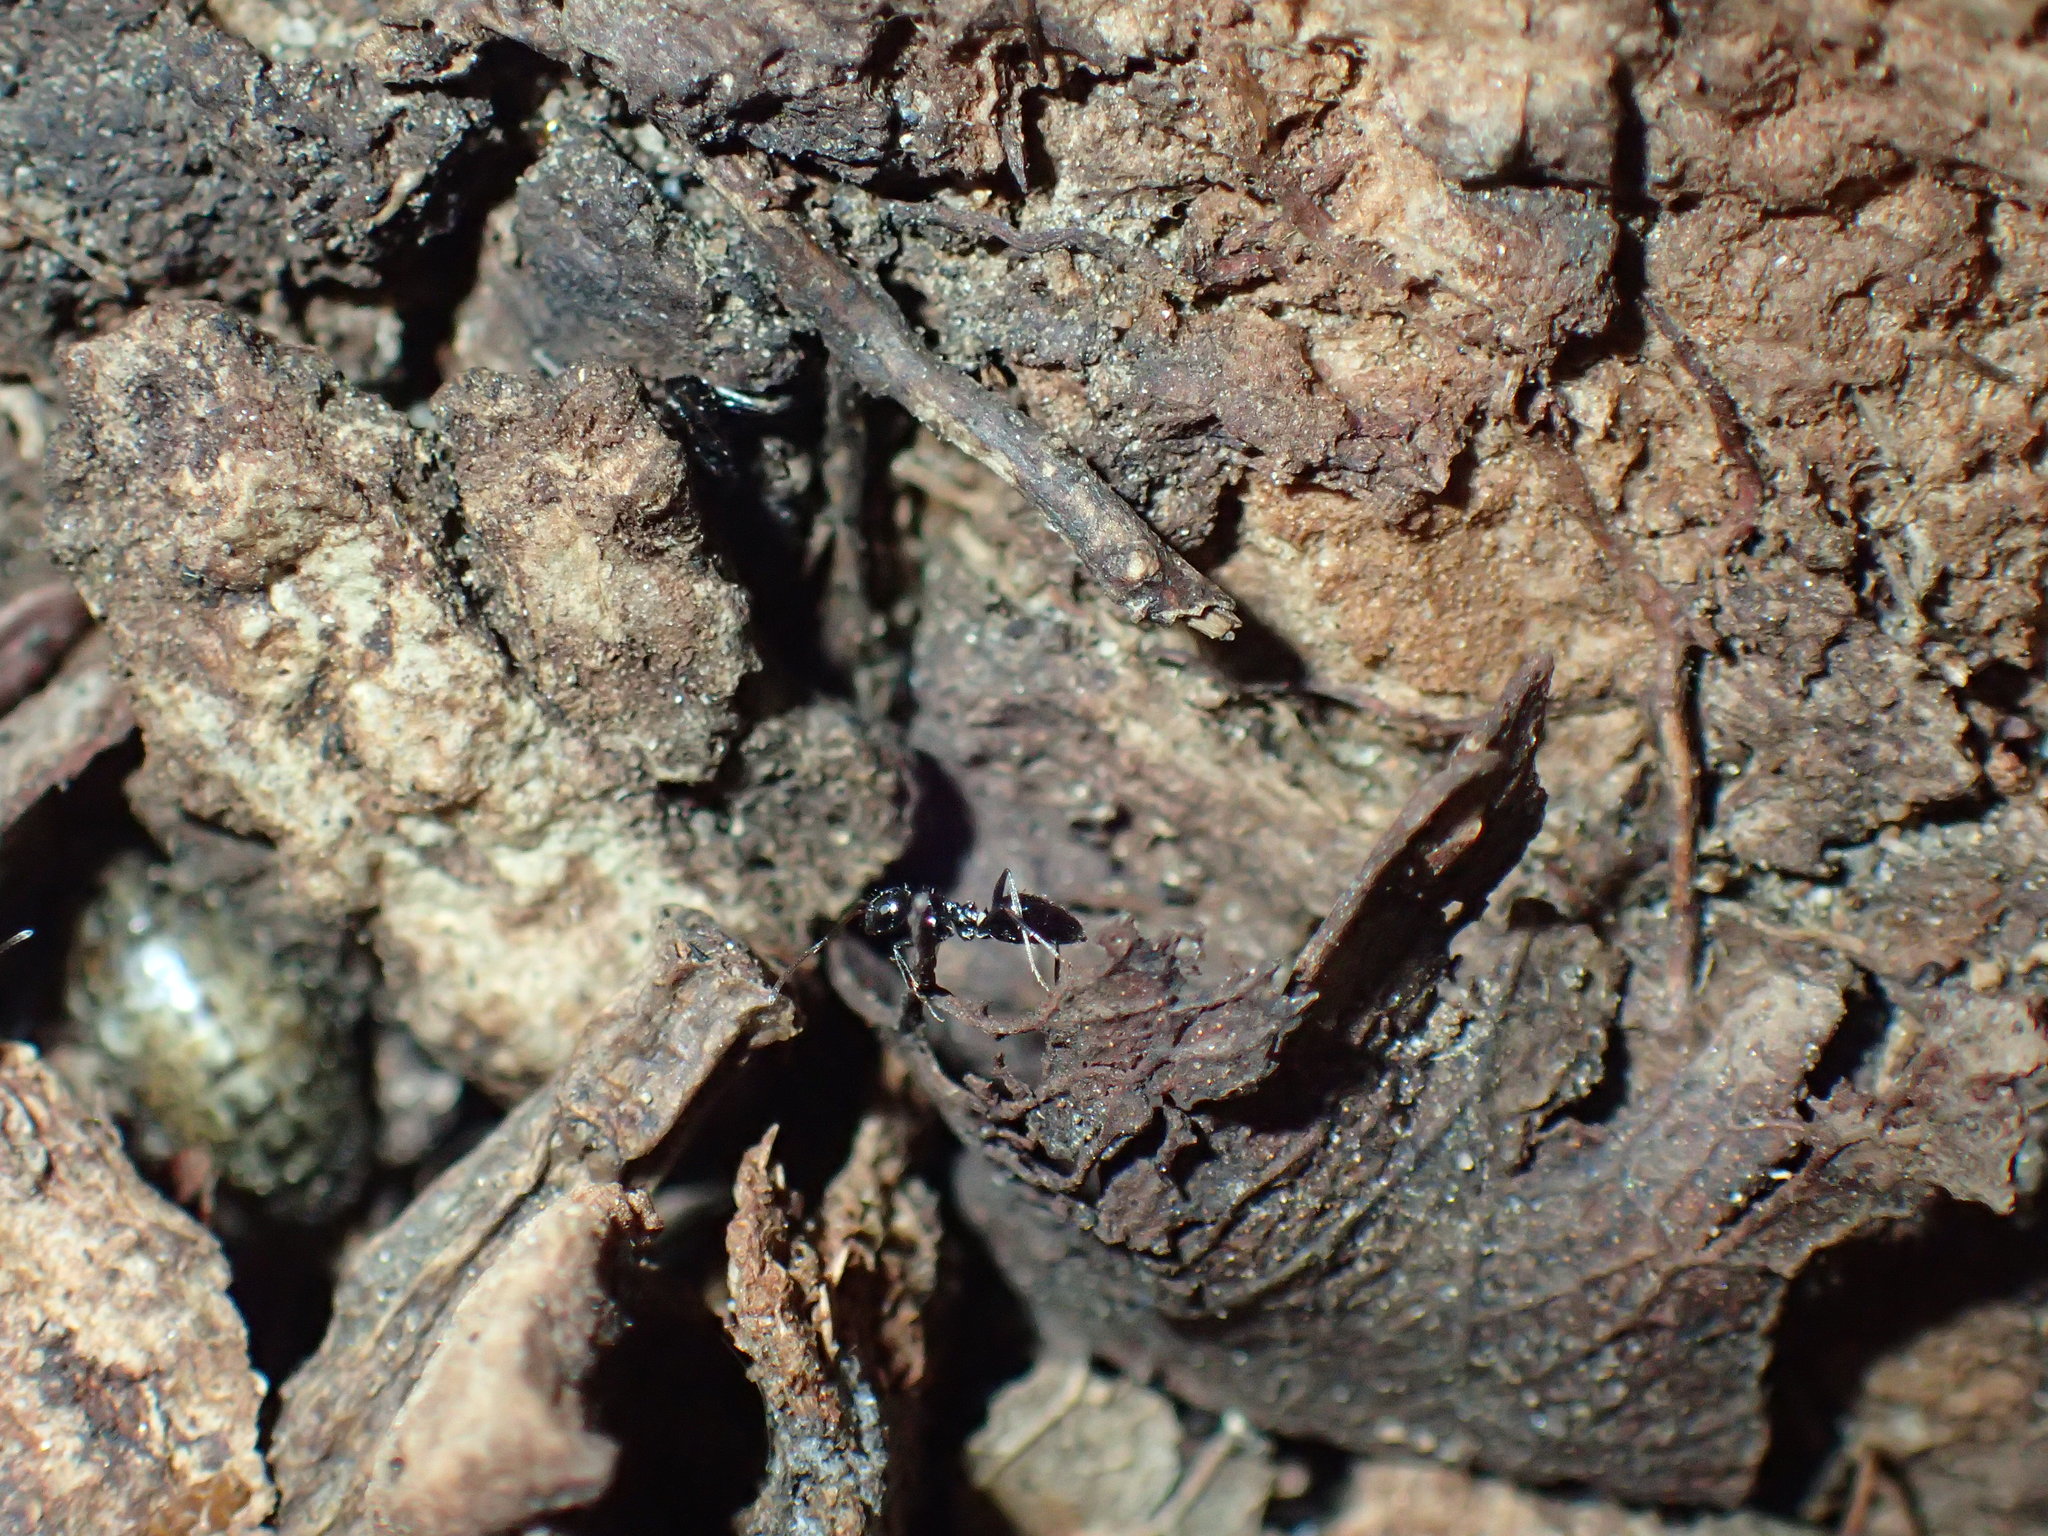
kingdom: Animalia
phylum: Arthropoda
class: Insecta
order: Hymenoptera
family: Formicidae
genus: Lepisiota
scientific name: Lepisiota submetallica
